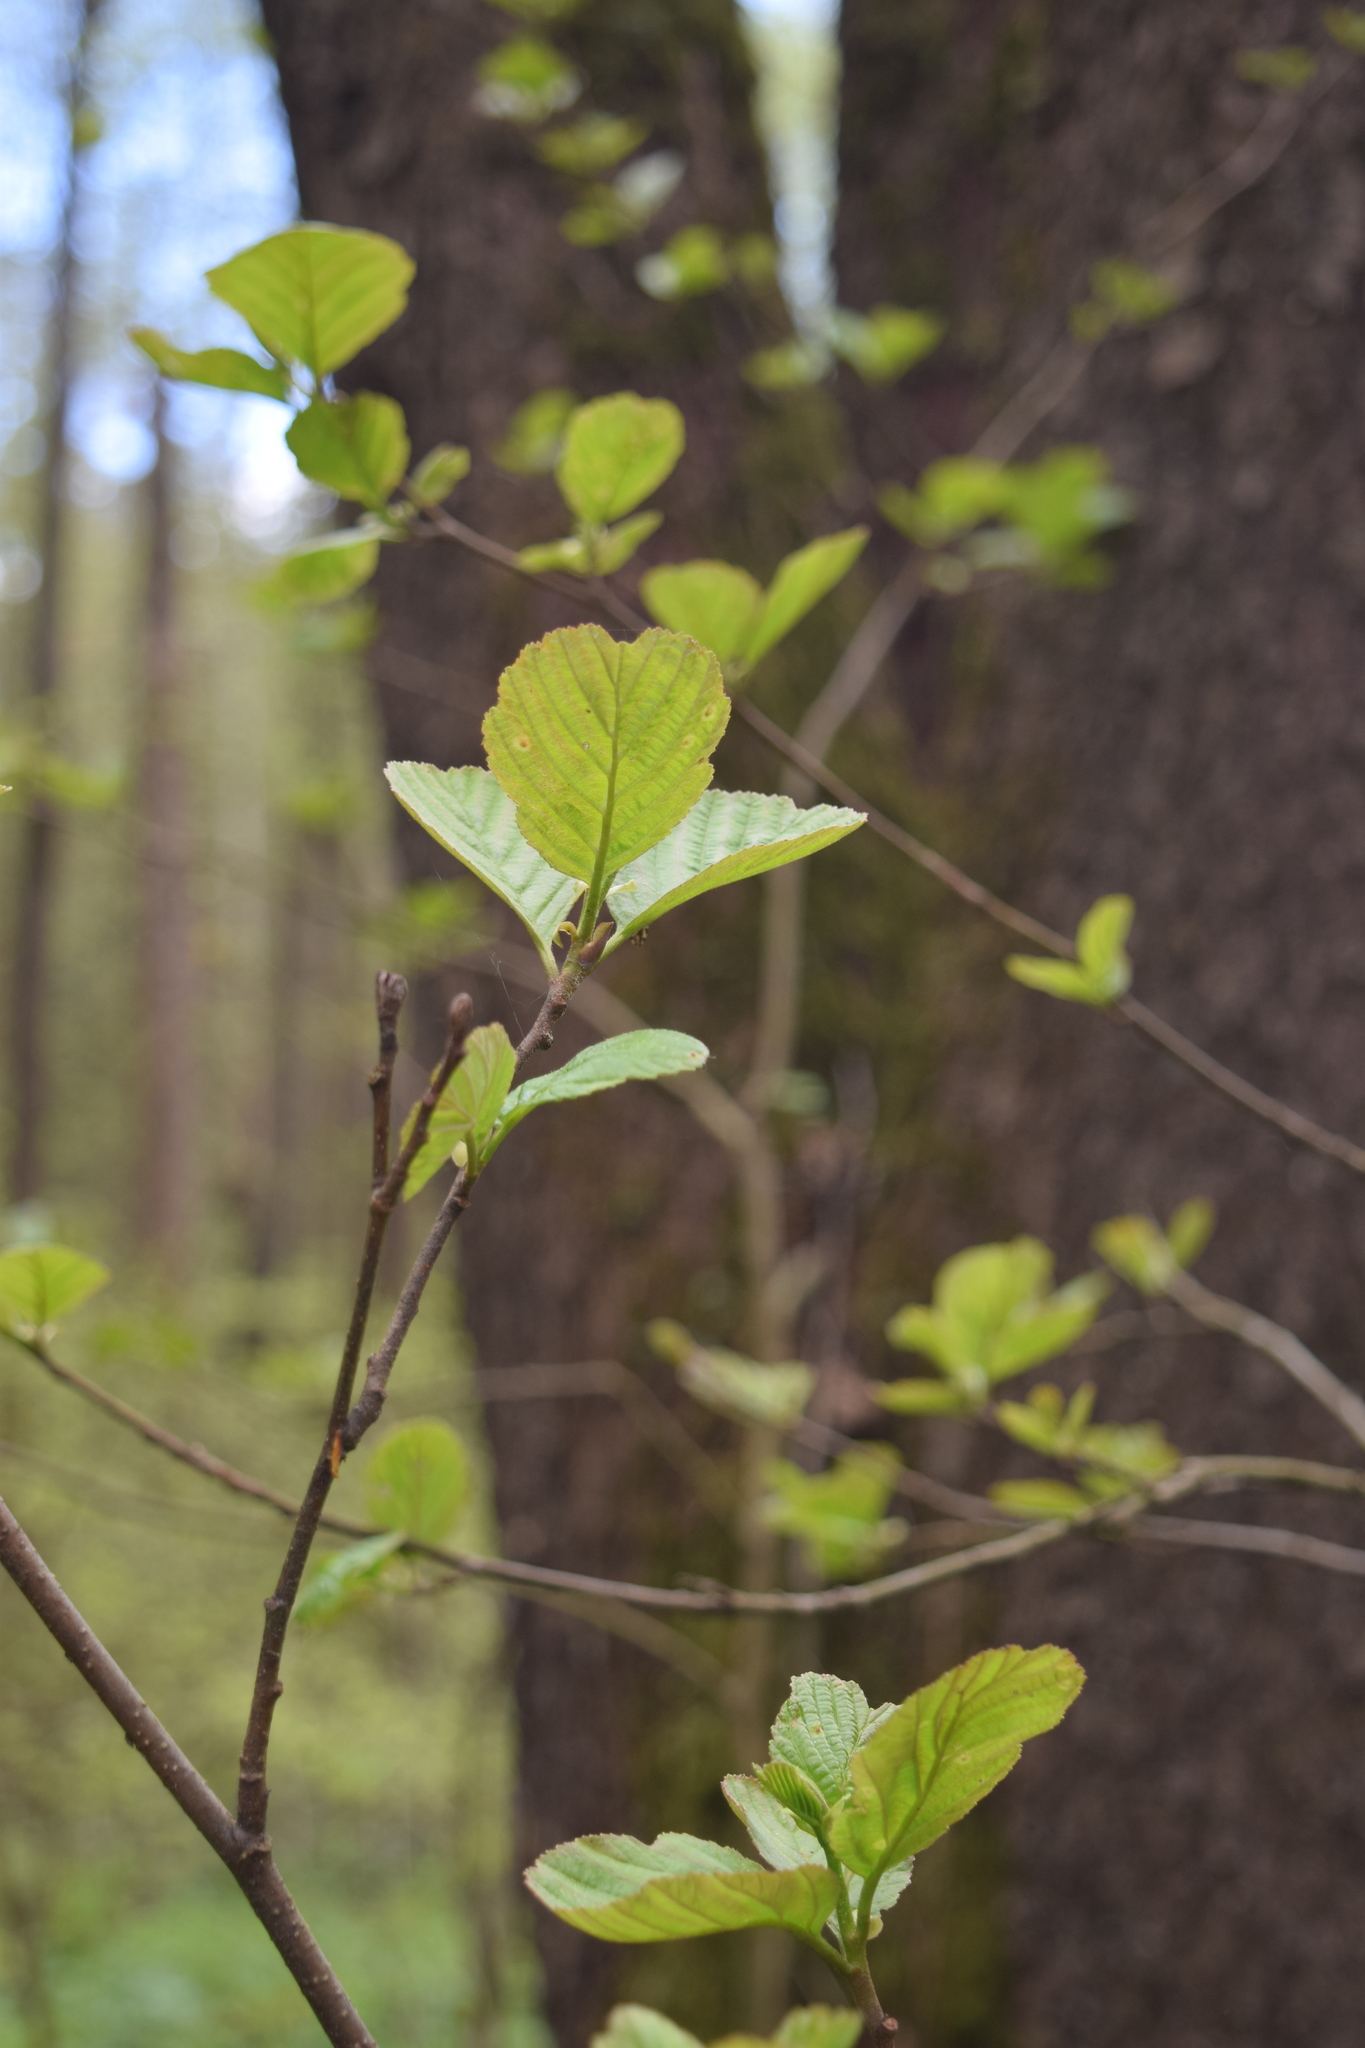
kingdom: Plantae
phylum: Tracheophyta
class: Magnoliopsida
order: Fagales
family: Betulaceae
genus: Alnus
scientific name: Alnus glutinosa
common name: Black alder
